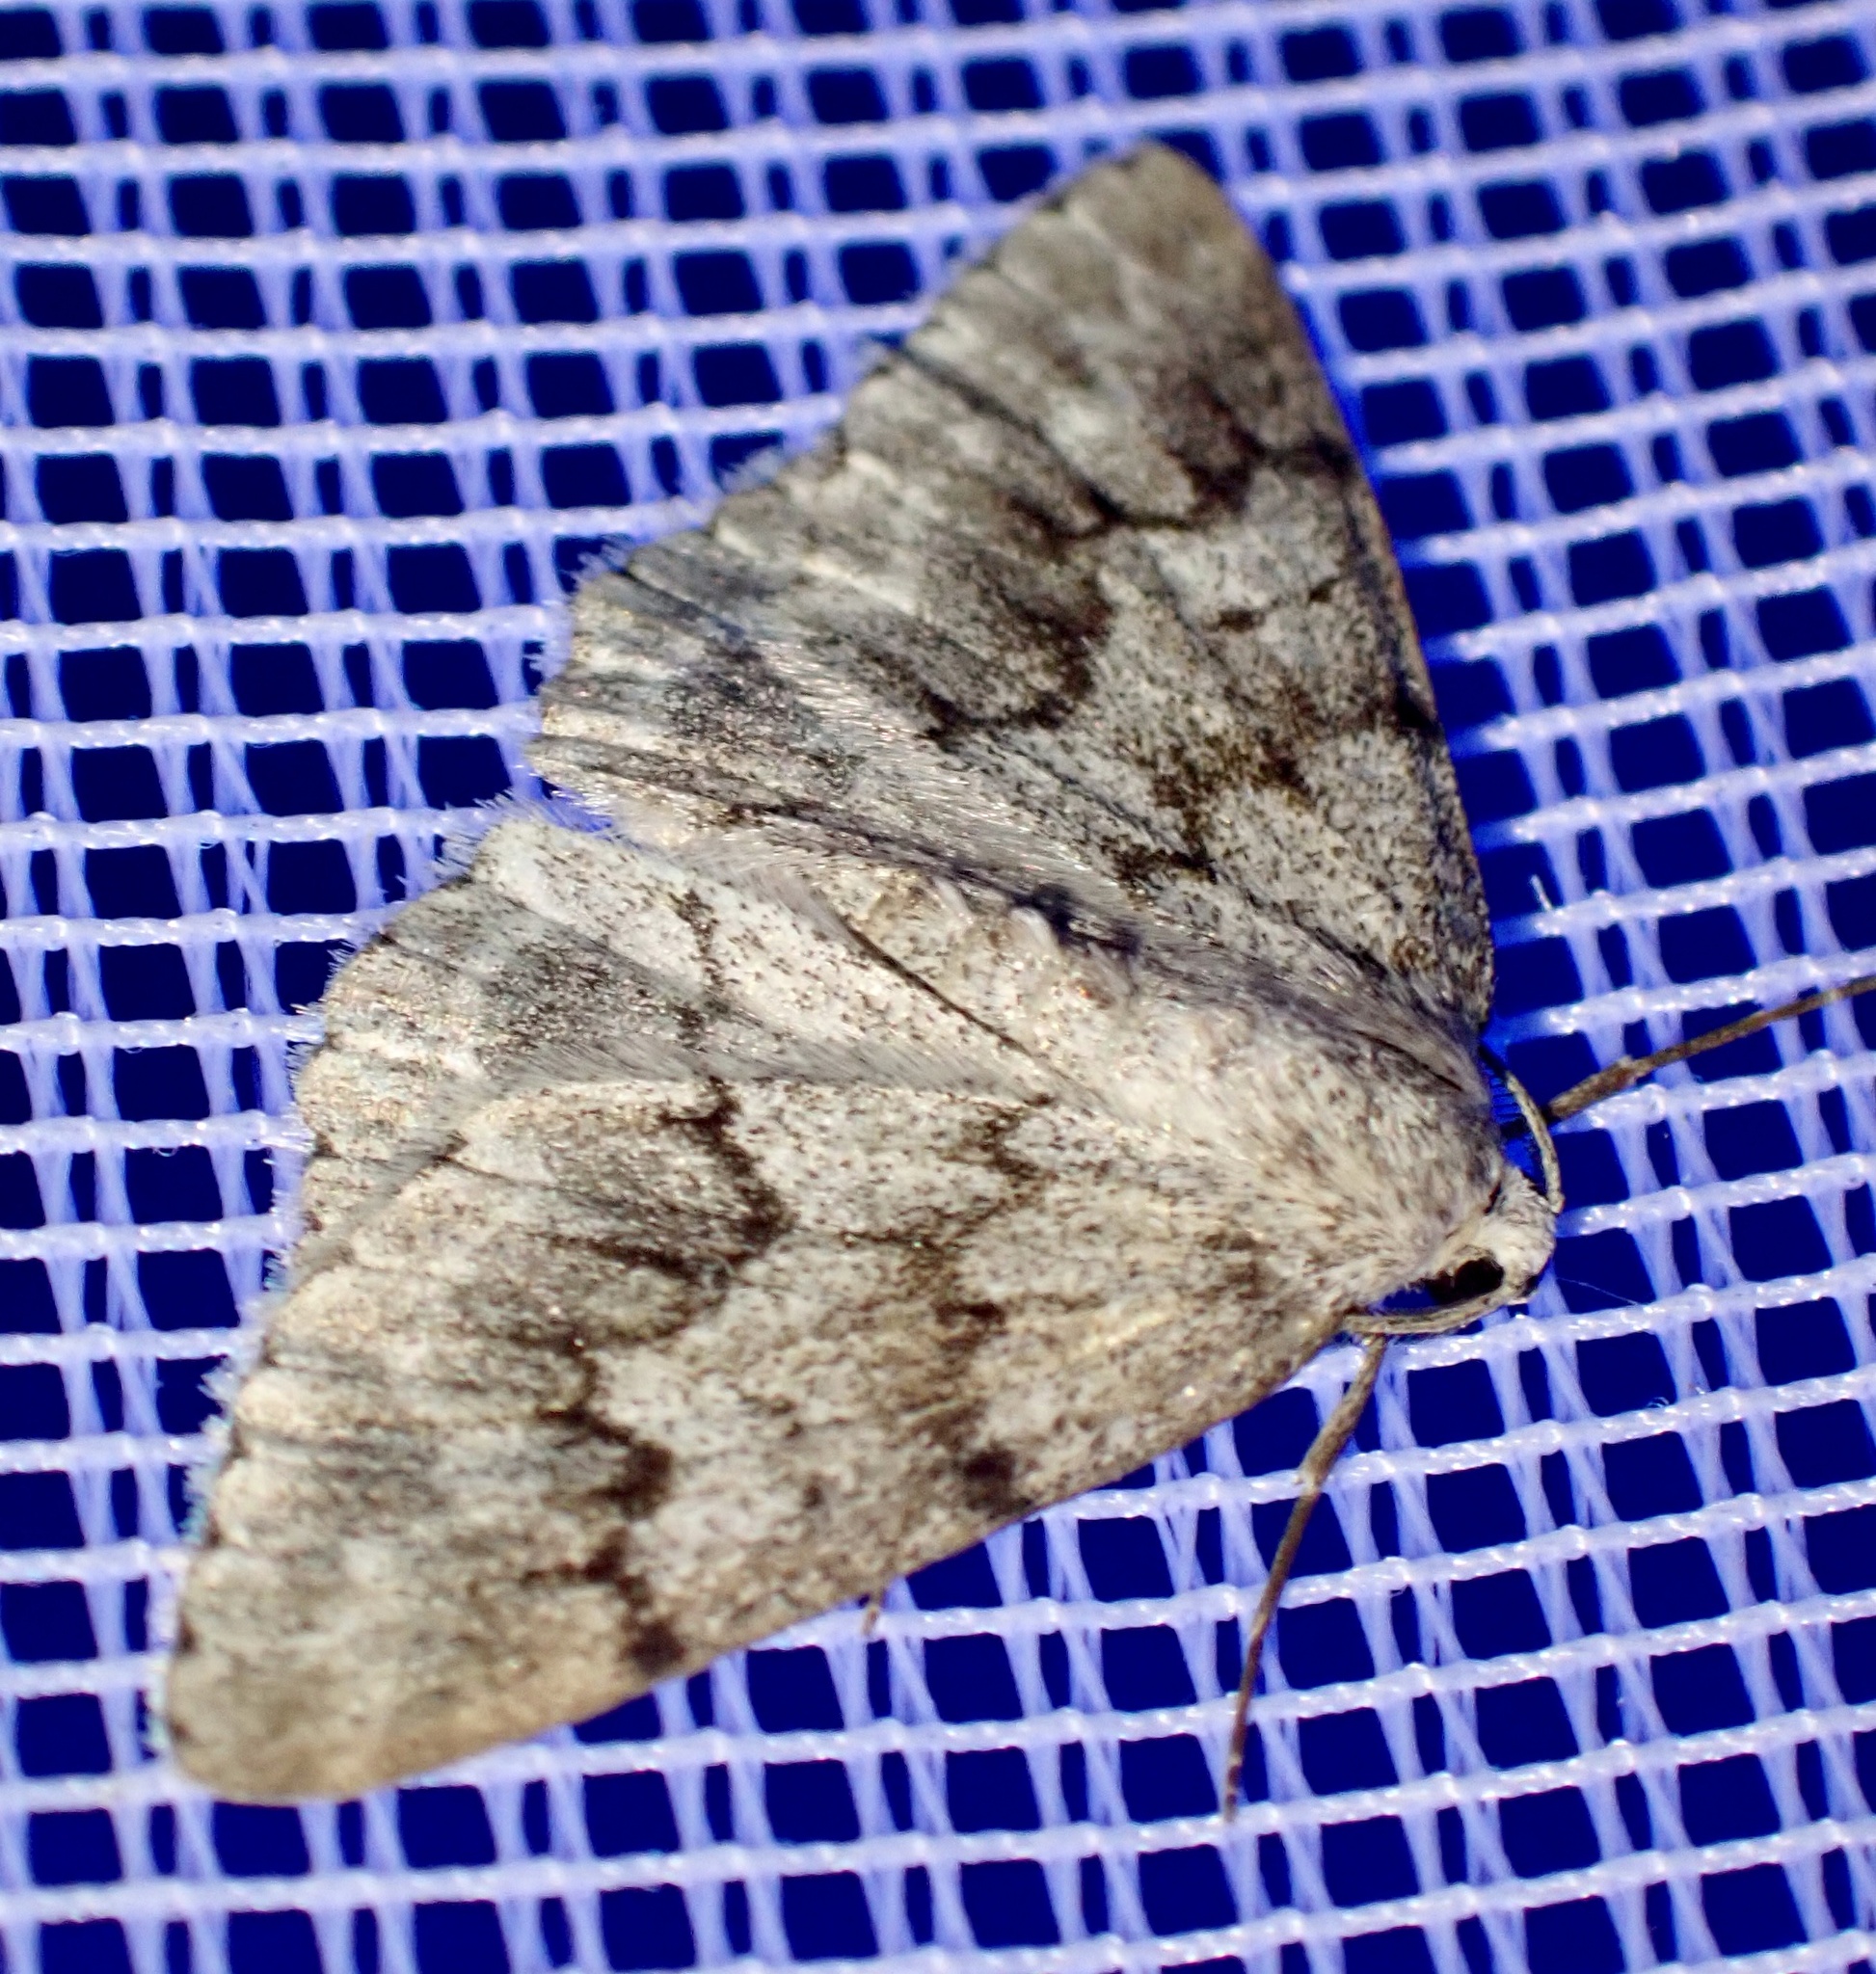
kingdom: Animalia
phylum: Arthropoda
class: Insecta
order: Lepidoptera
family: Geometridae
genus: Pseudoterpna
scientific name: Pseudoterpna coronillaria
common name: Jersey emerald
